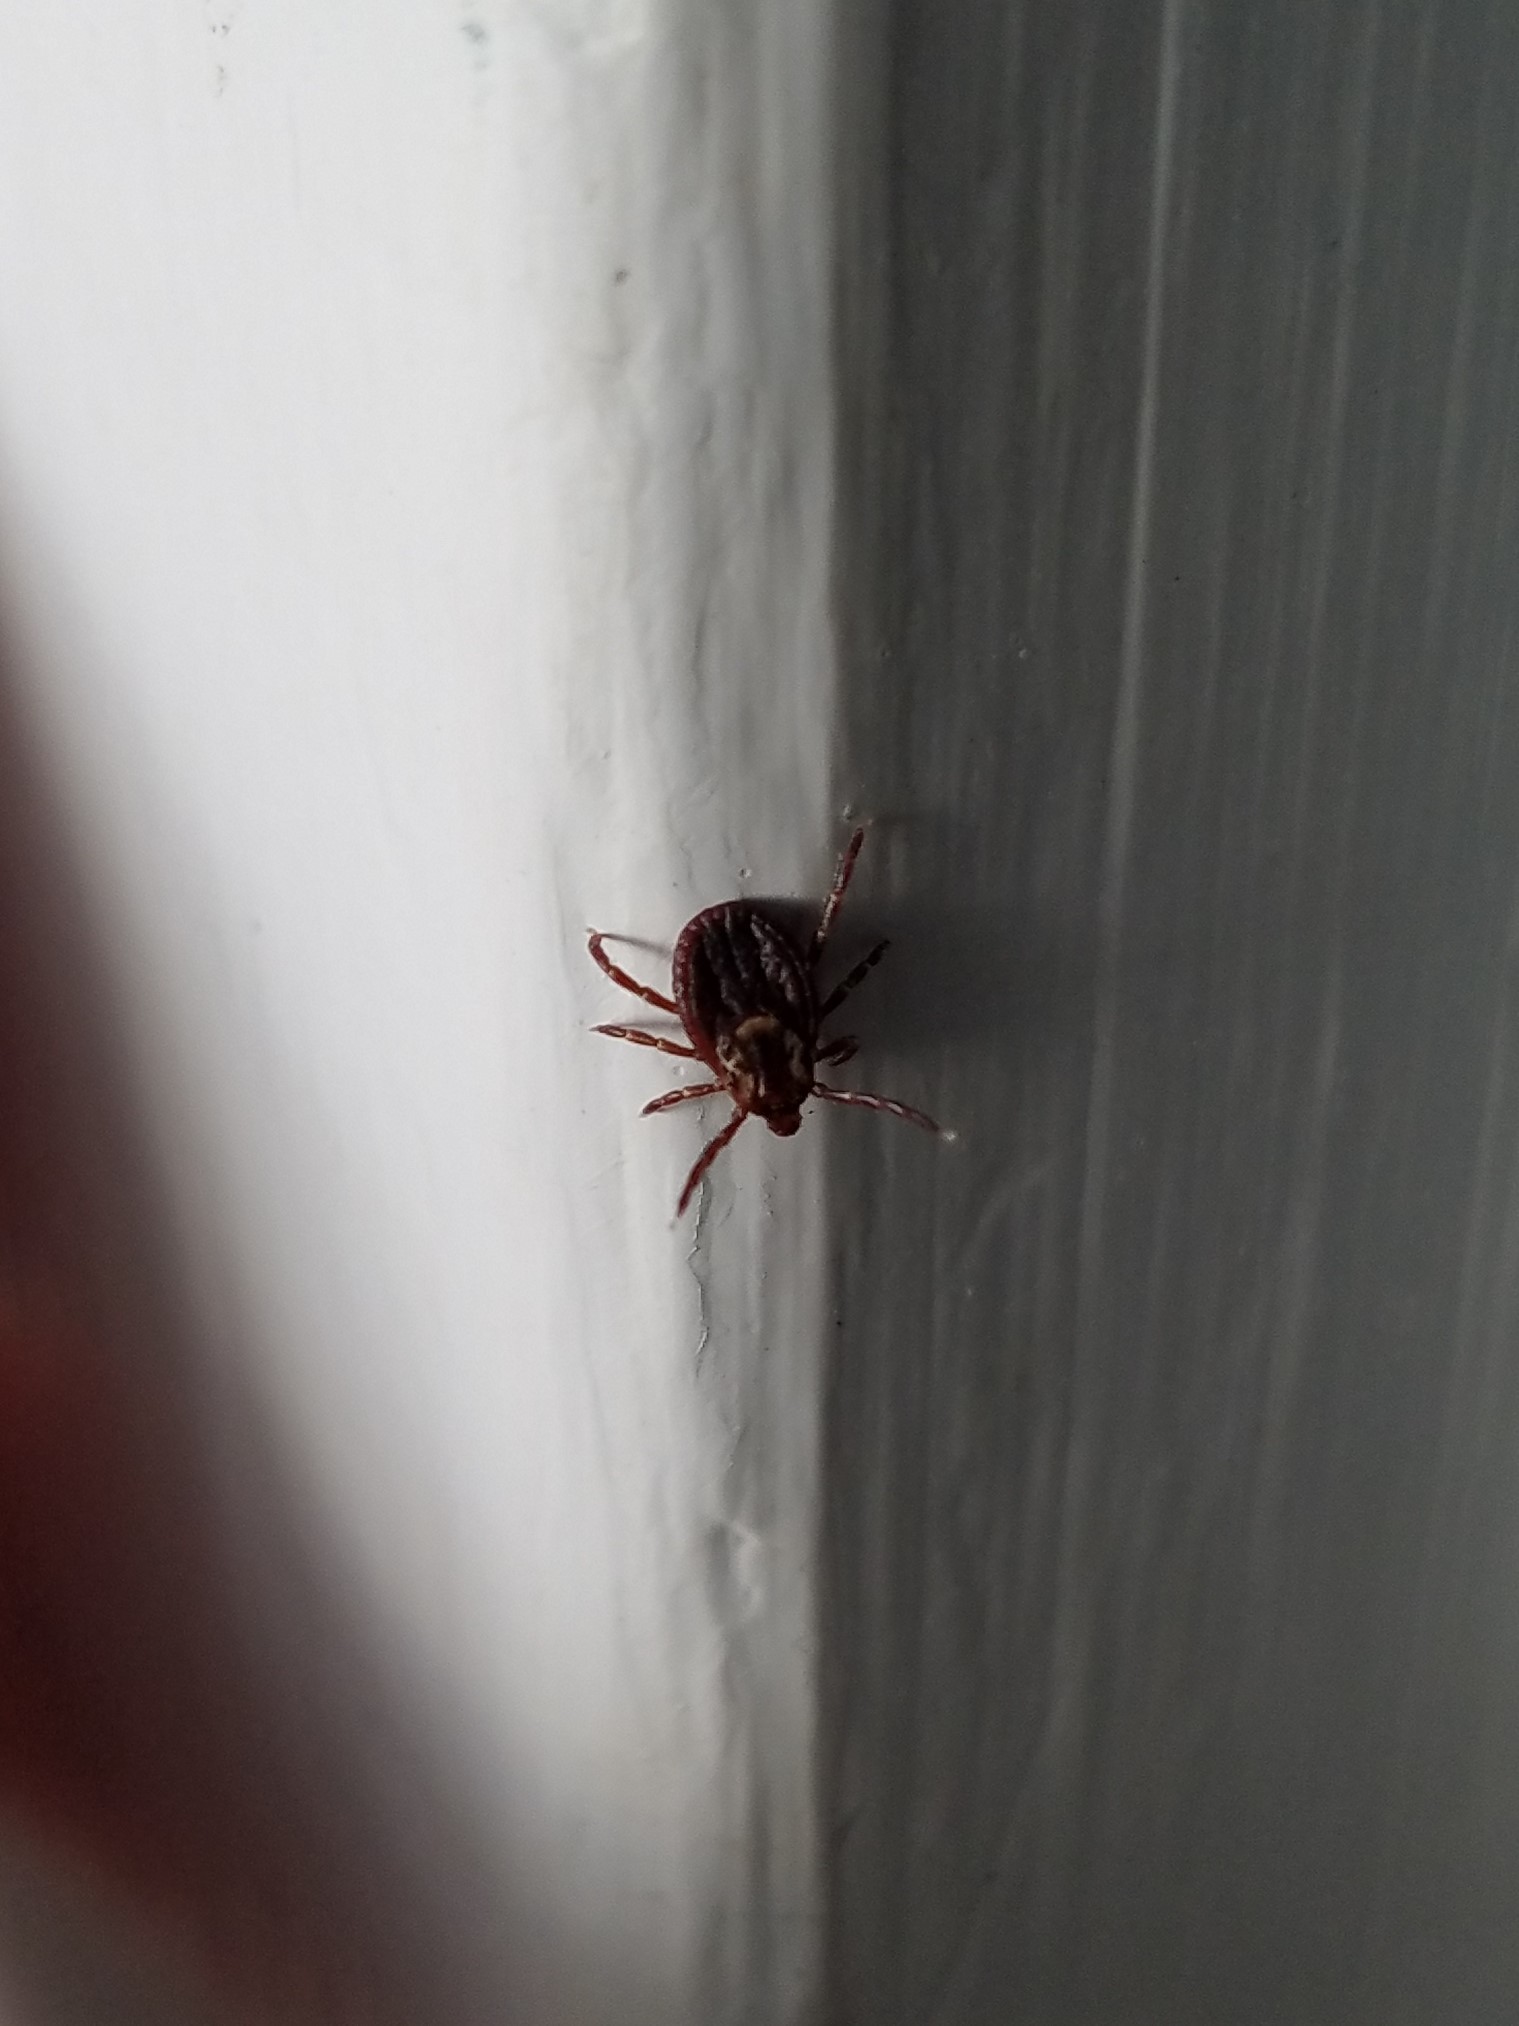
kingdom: Animalia
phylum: Arthropoda
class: Arachnida
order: Ixodida
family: Ixodidae
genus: Dermacentor
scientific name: Dermacentor variabilis
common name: American dog tick
